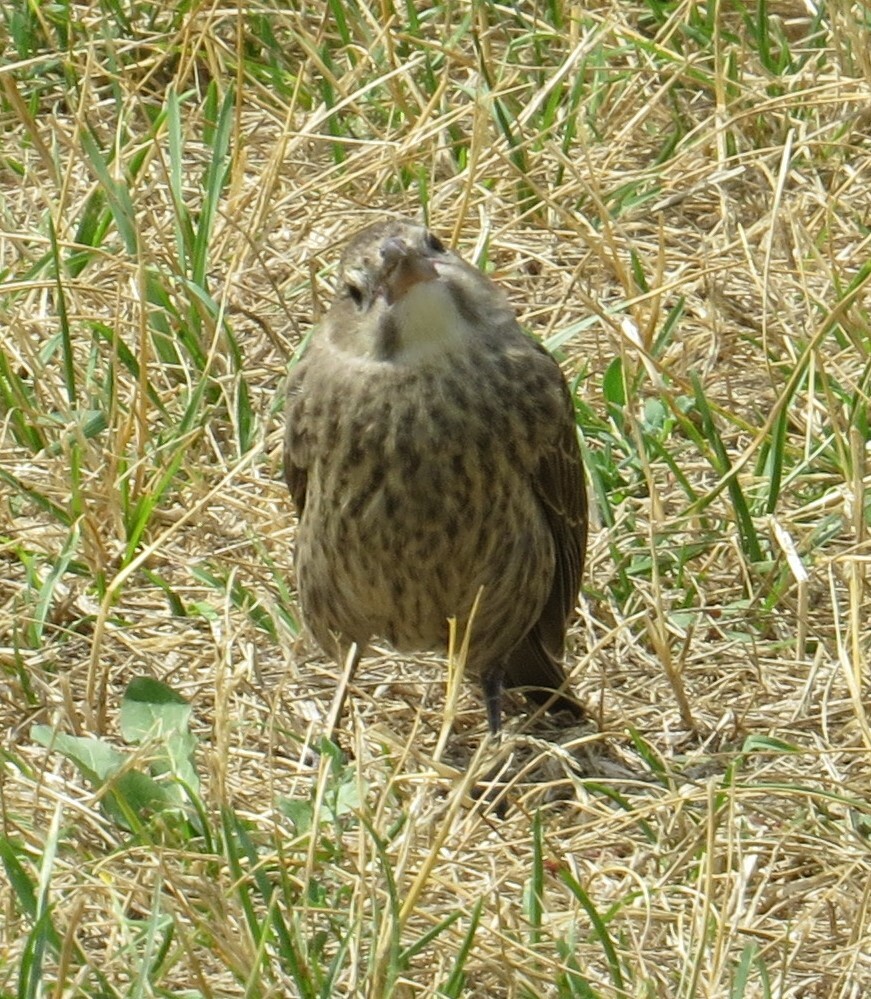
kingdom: Animalia
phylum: Chordata
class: Aves
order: Passeriformes
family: Icteridae
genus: Molothrus
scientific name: Molothrus ater
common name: Brown-headed cowbird
